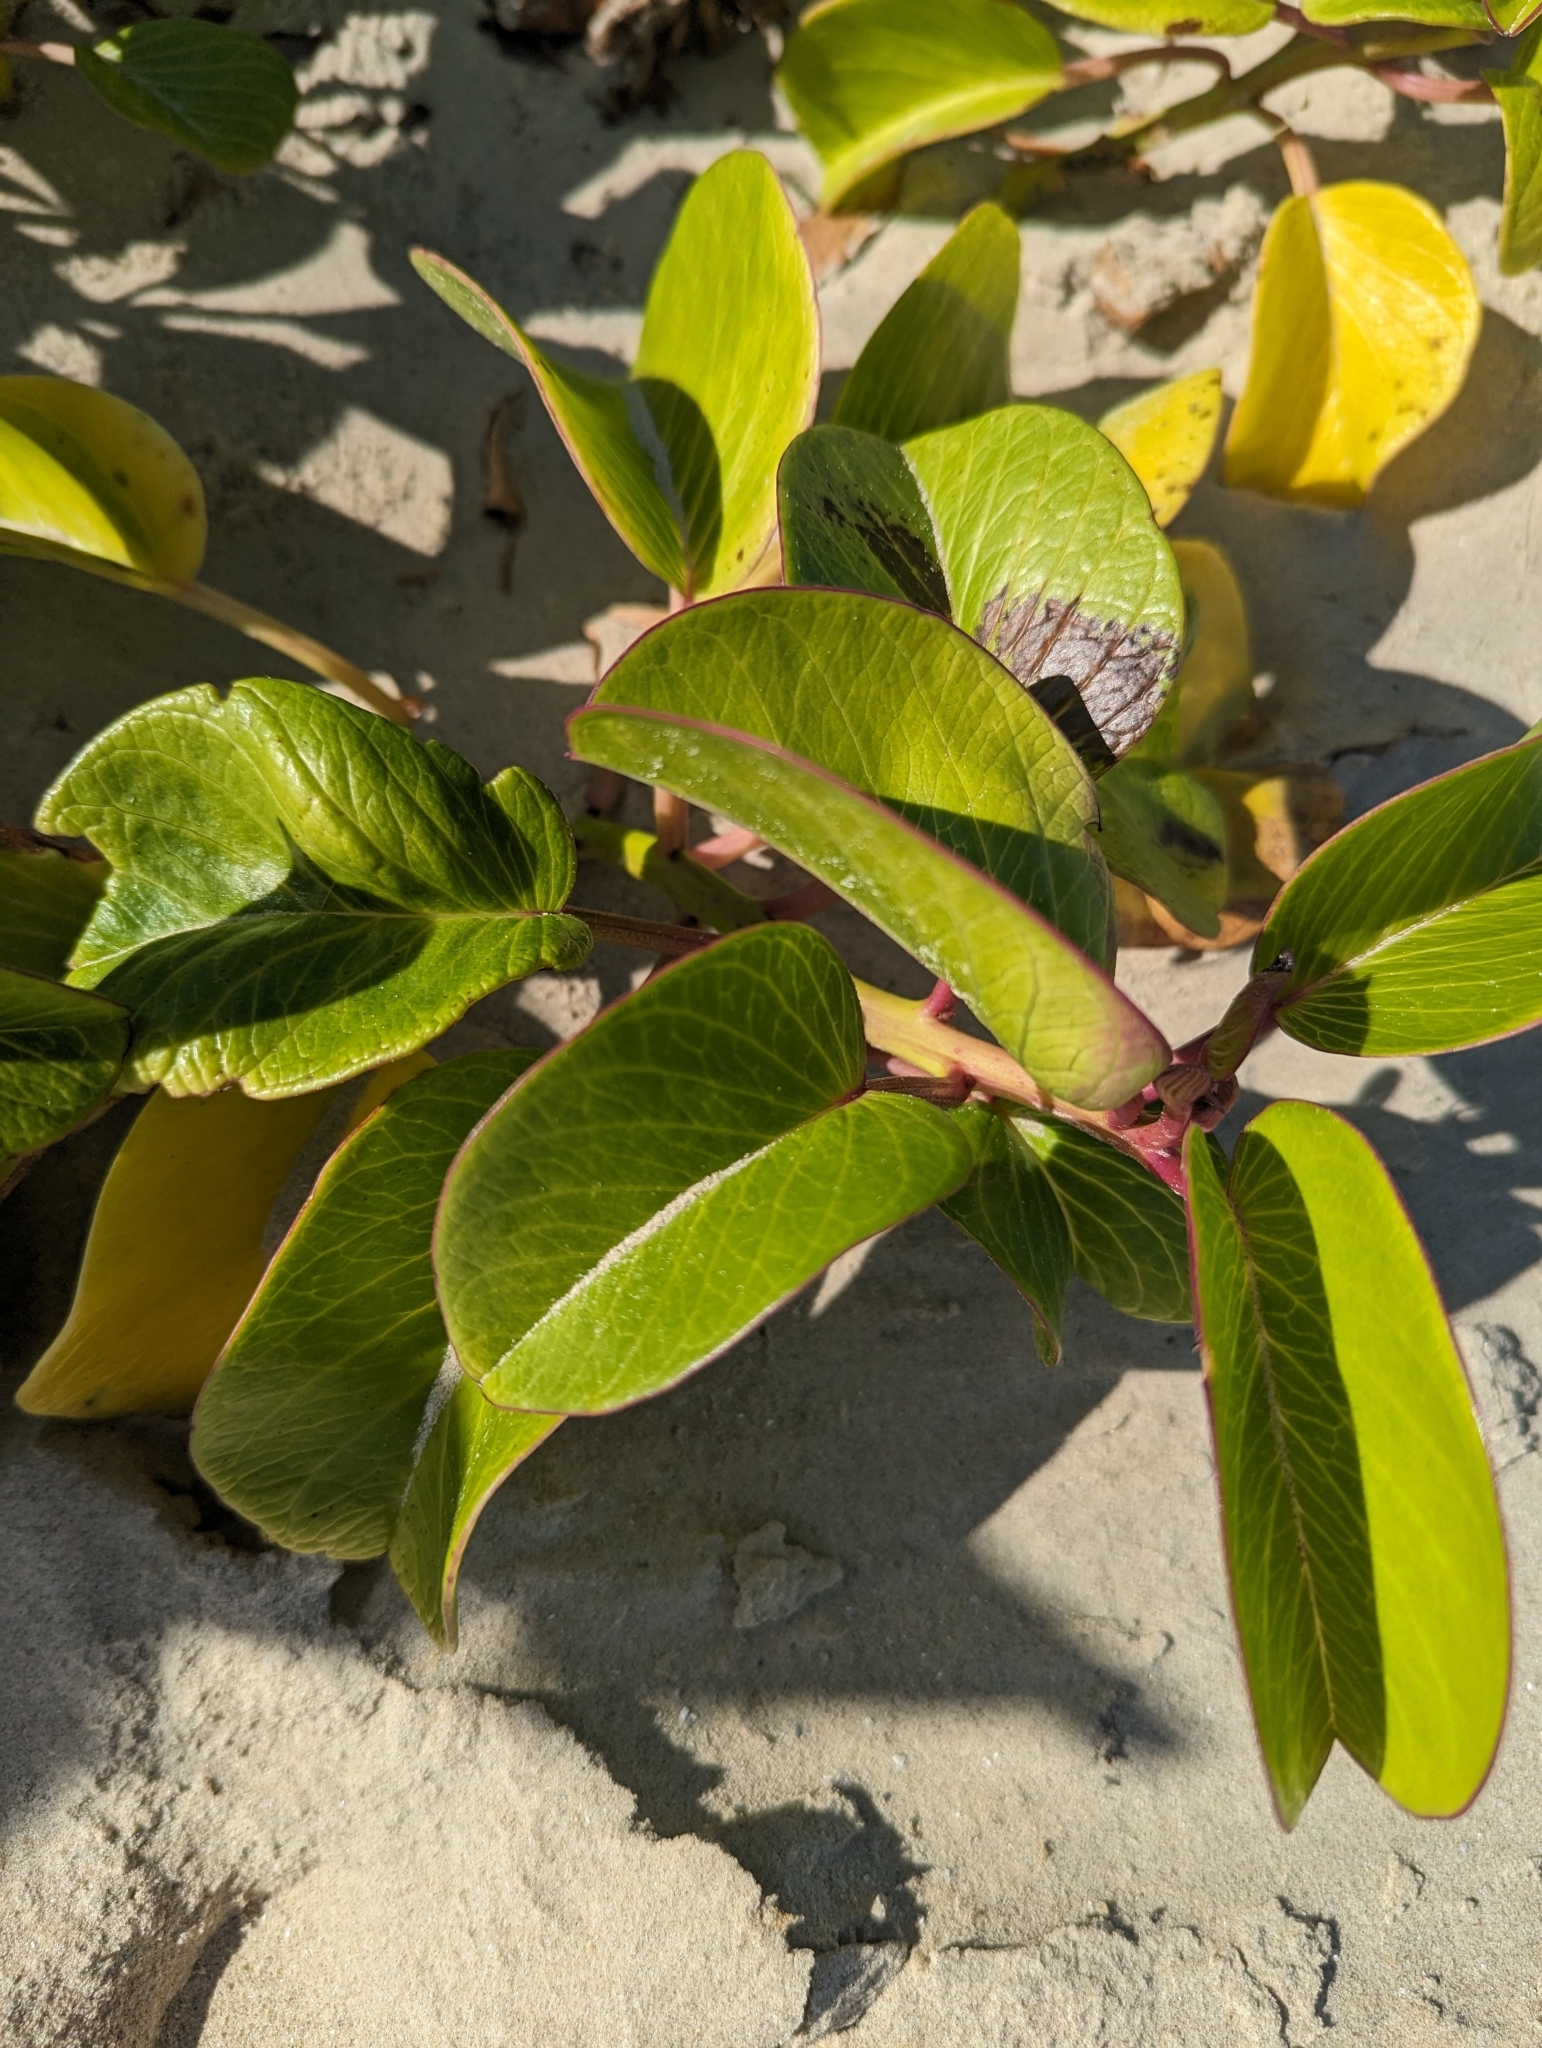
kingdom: Plantae
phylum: Tracheophyta
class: Magnoliopsida
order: Solanales
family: Convolvulaceae
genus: Ipomoea
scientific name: Ipomoea imperati
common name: Fiddle-leaf morning-glory
